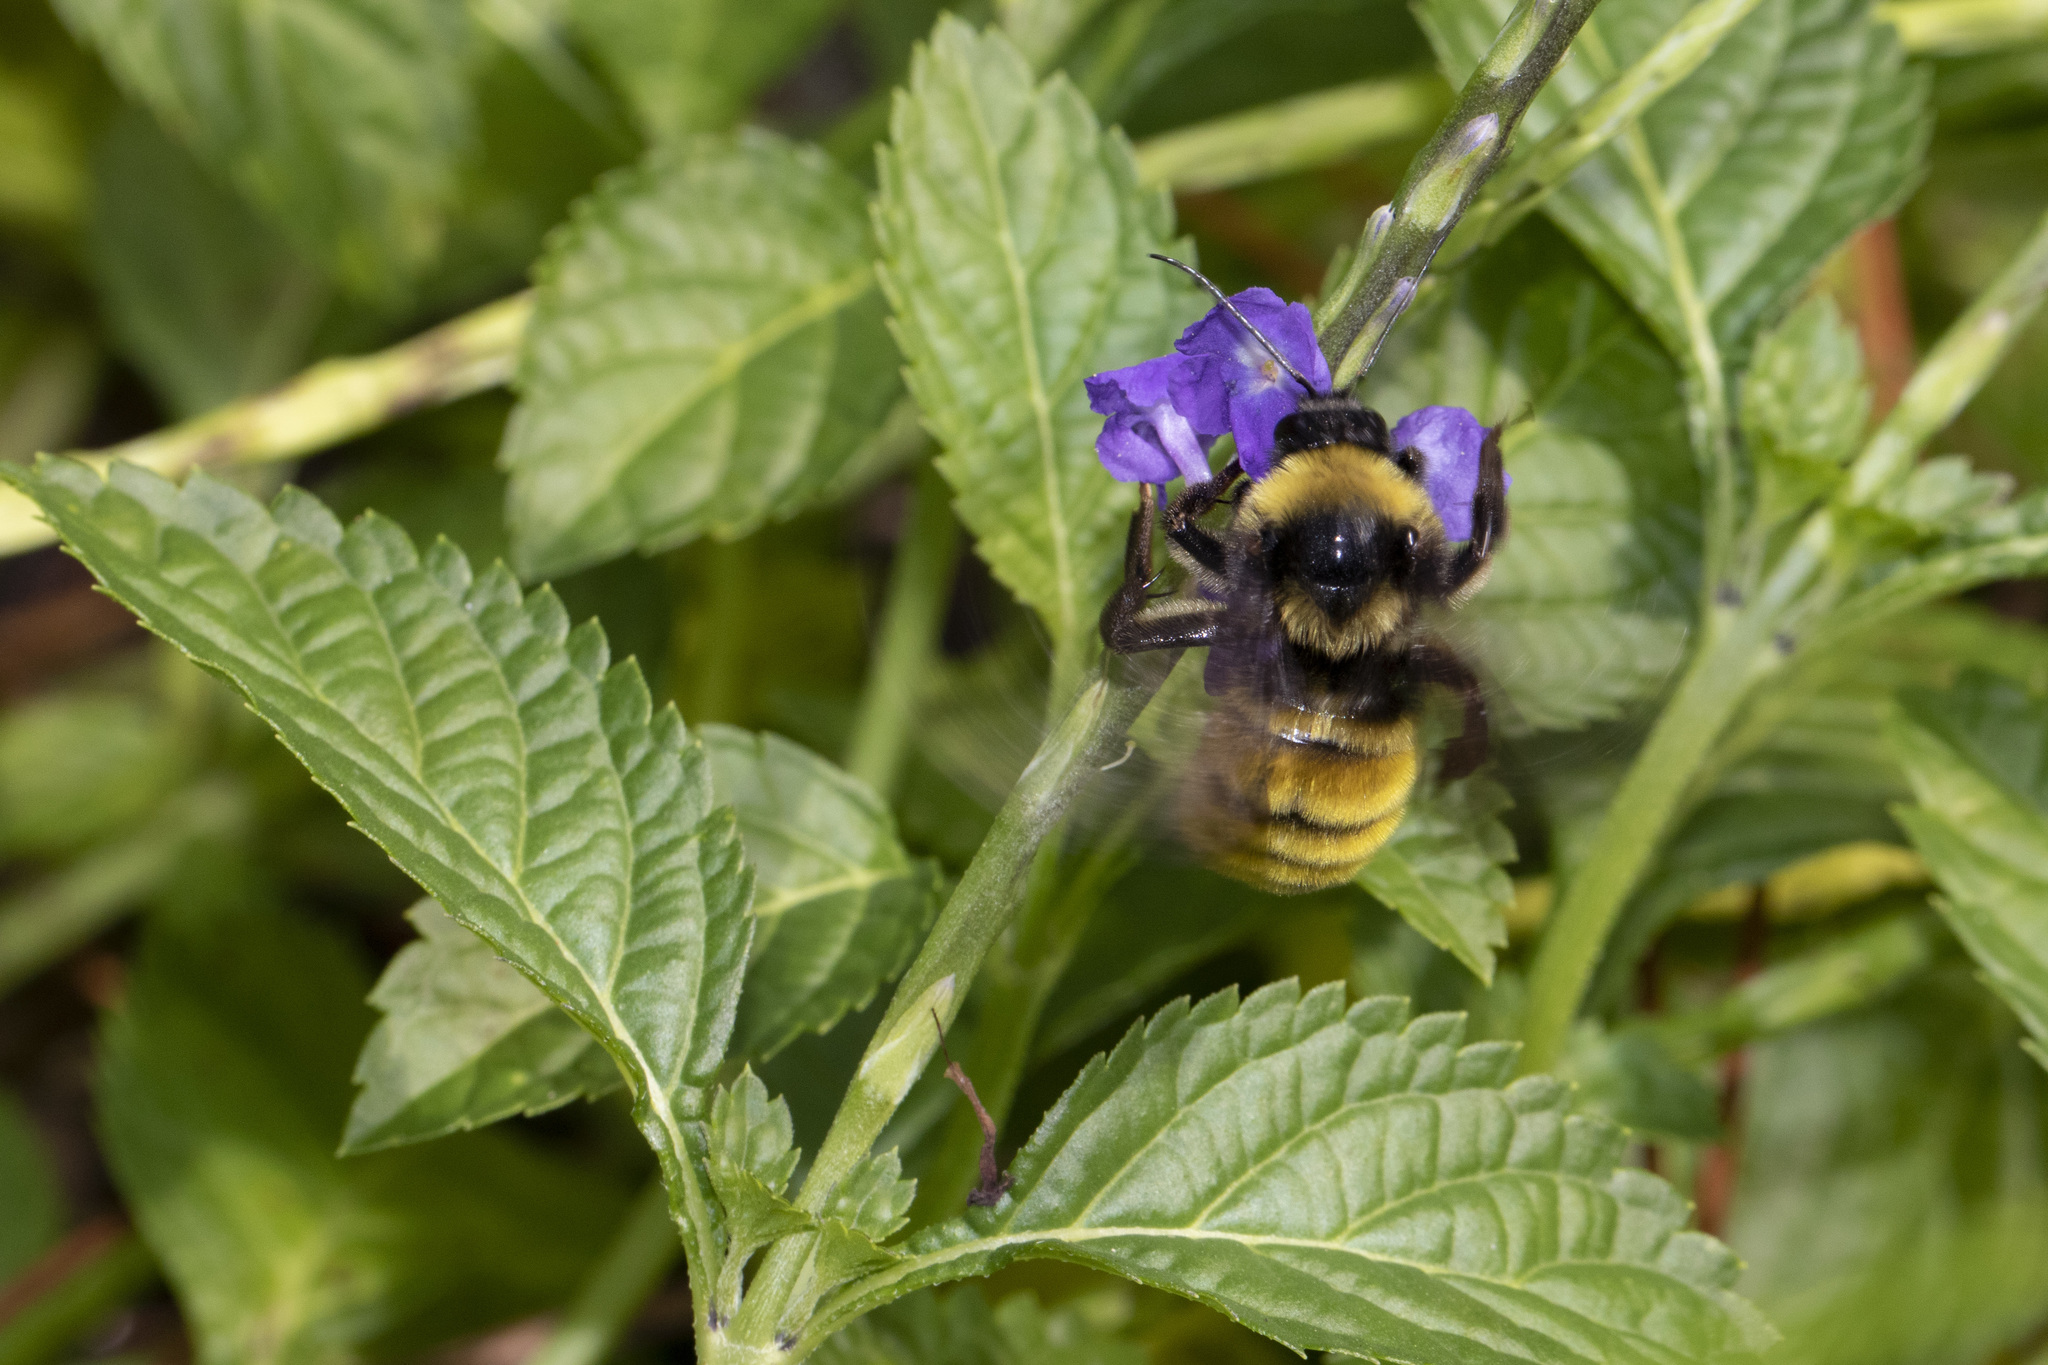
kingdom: Animalia
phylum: Arthropoda
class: Insecta
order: Hymenoptera
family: Apidae
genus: Bombus
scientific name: Bombus pensylvanicus
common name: Bumble bee
